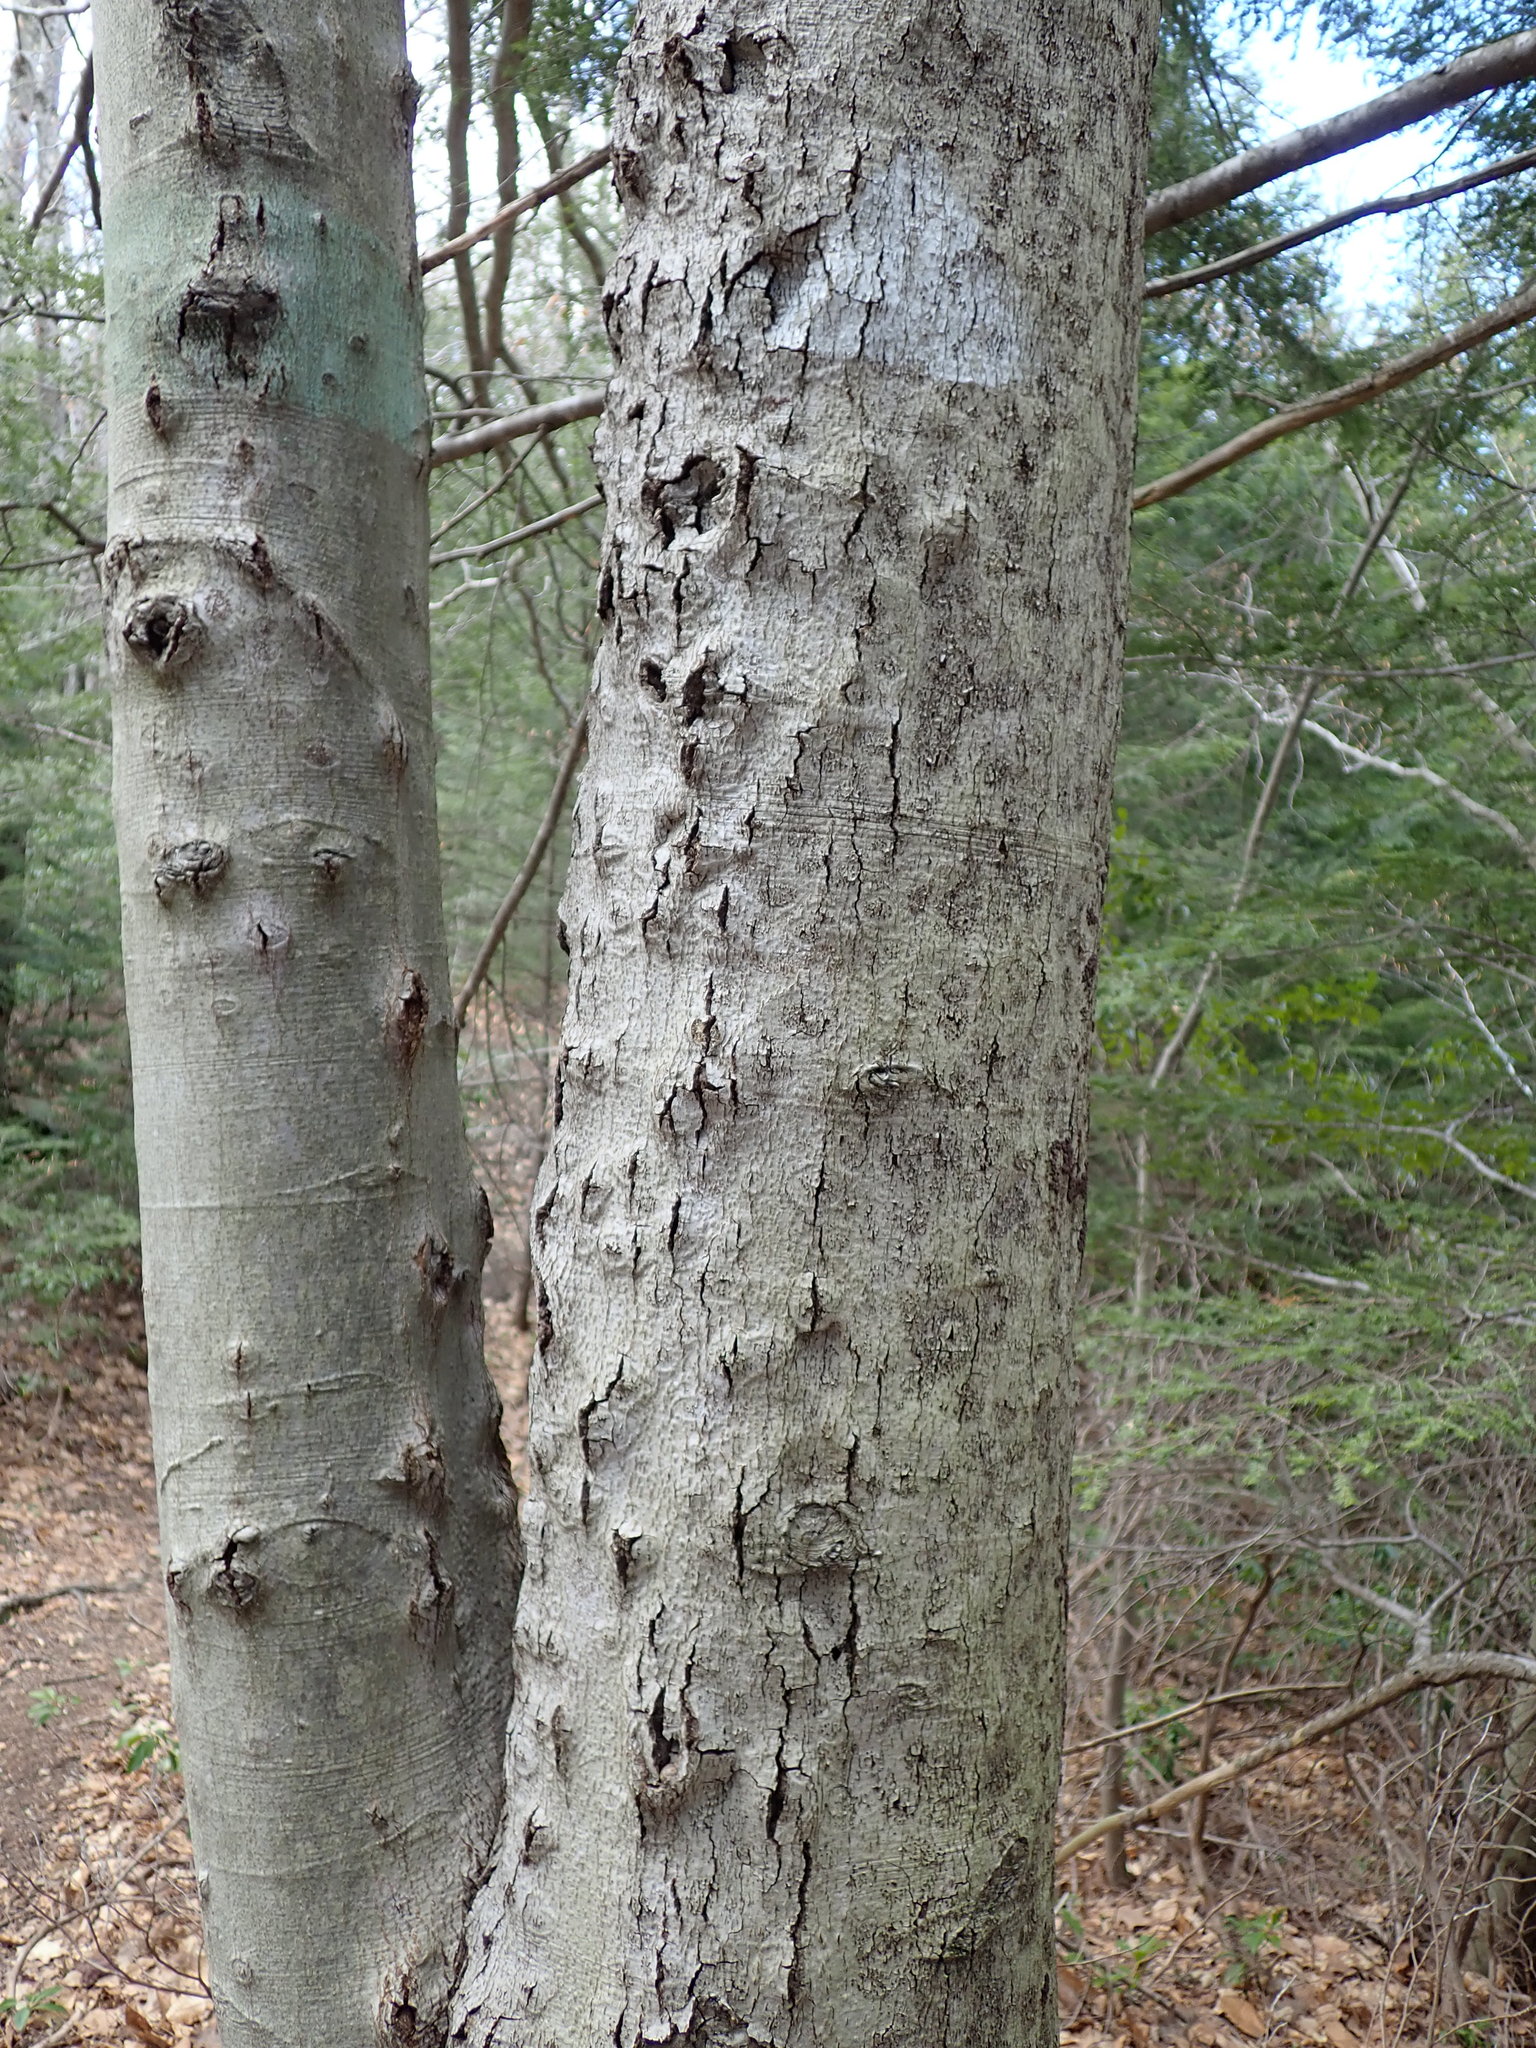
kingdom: Fungi
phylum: Ascomycota
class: Sordariomycetes
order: Hypocreales
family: Nectriaceae
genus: Neonectria
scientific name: Neonectria faginata
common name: Beech bark canker
